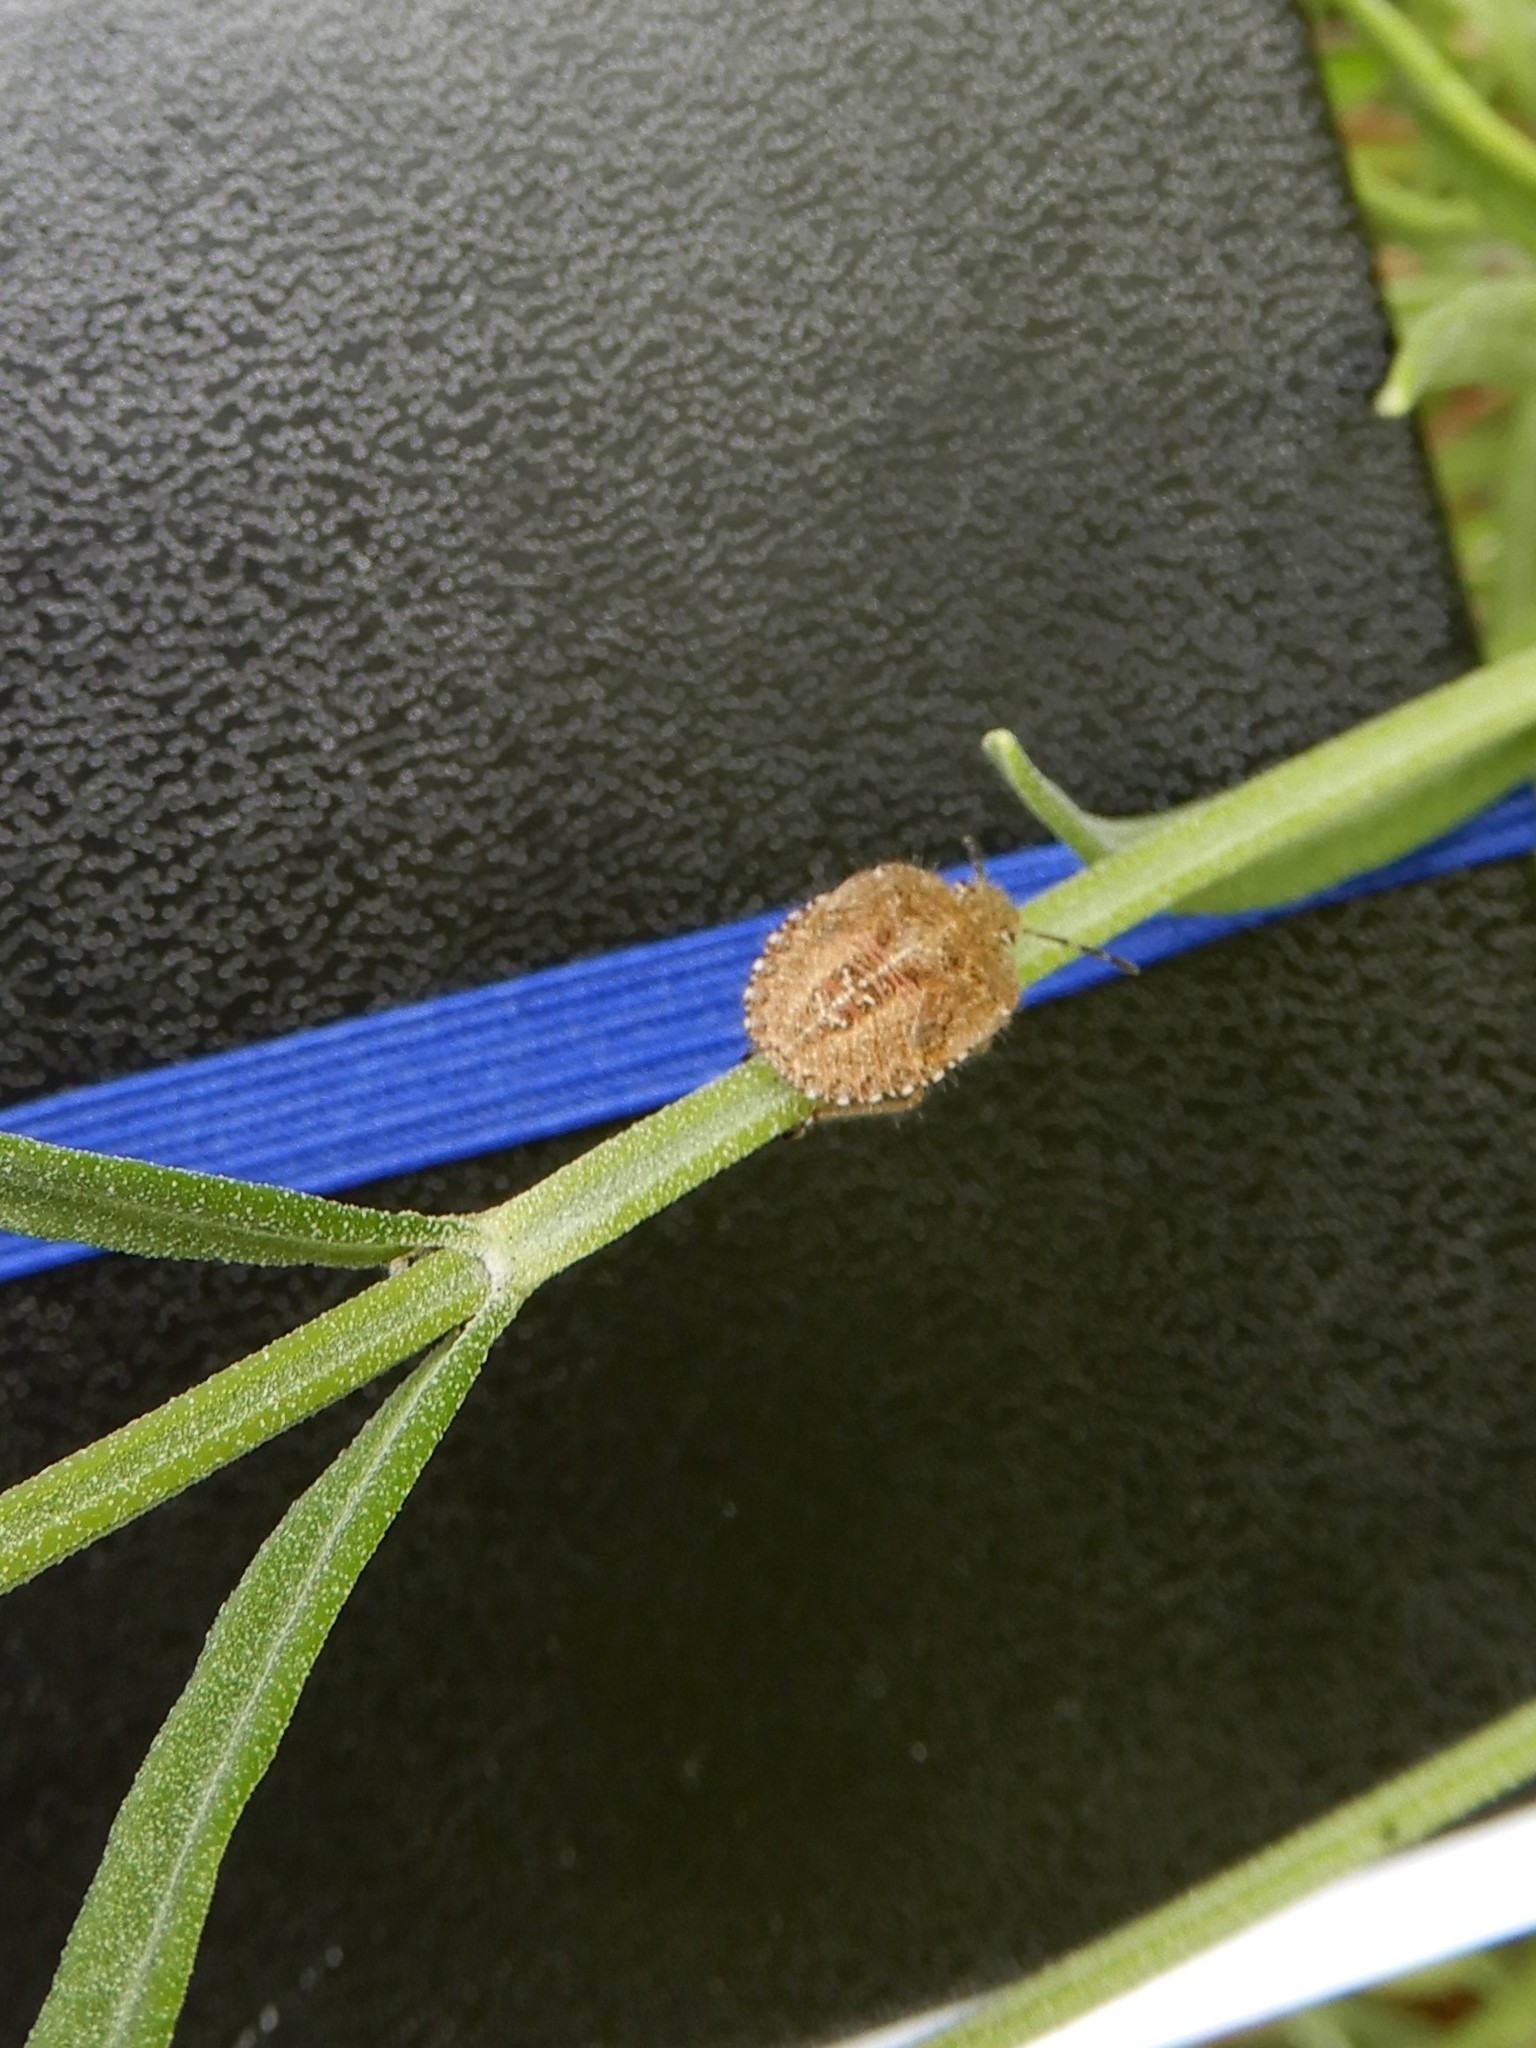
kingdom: Animalia
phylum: Arthropoda
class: Insecta
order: Hemiptera
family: Pentatomidae
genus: Dolycoris
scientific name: Dolycoris baccarum
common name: Sloe bug
